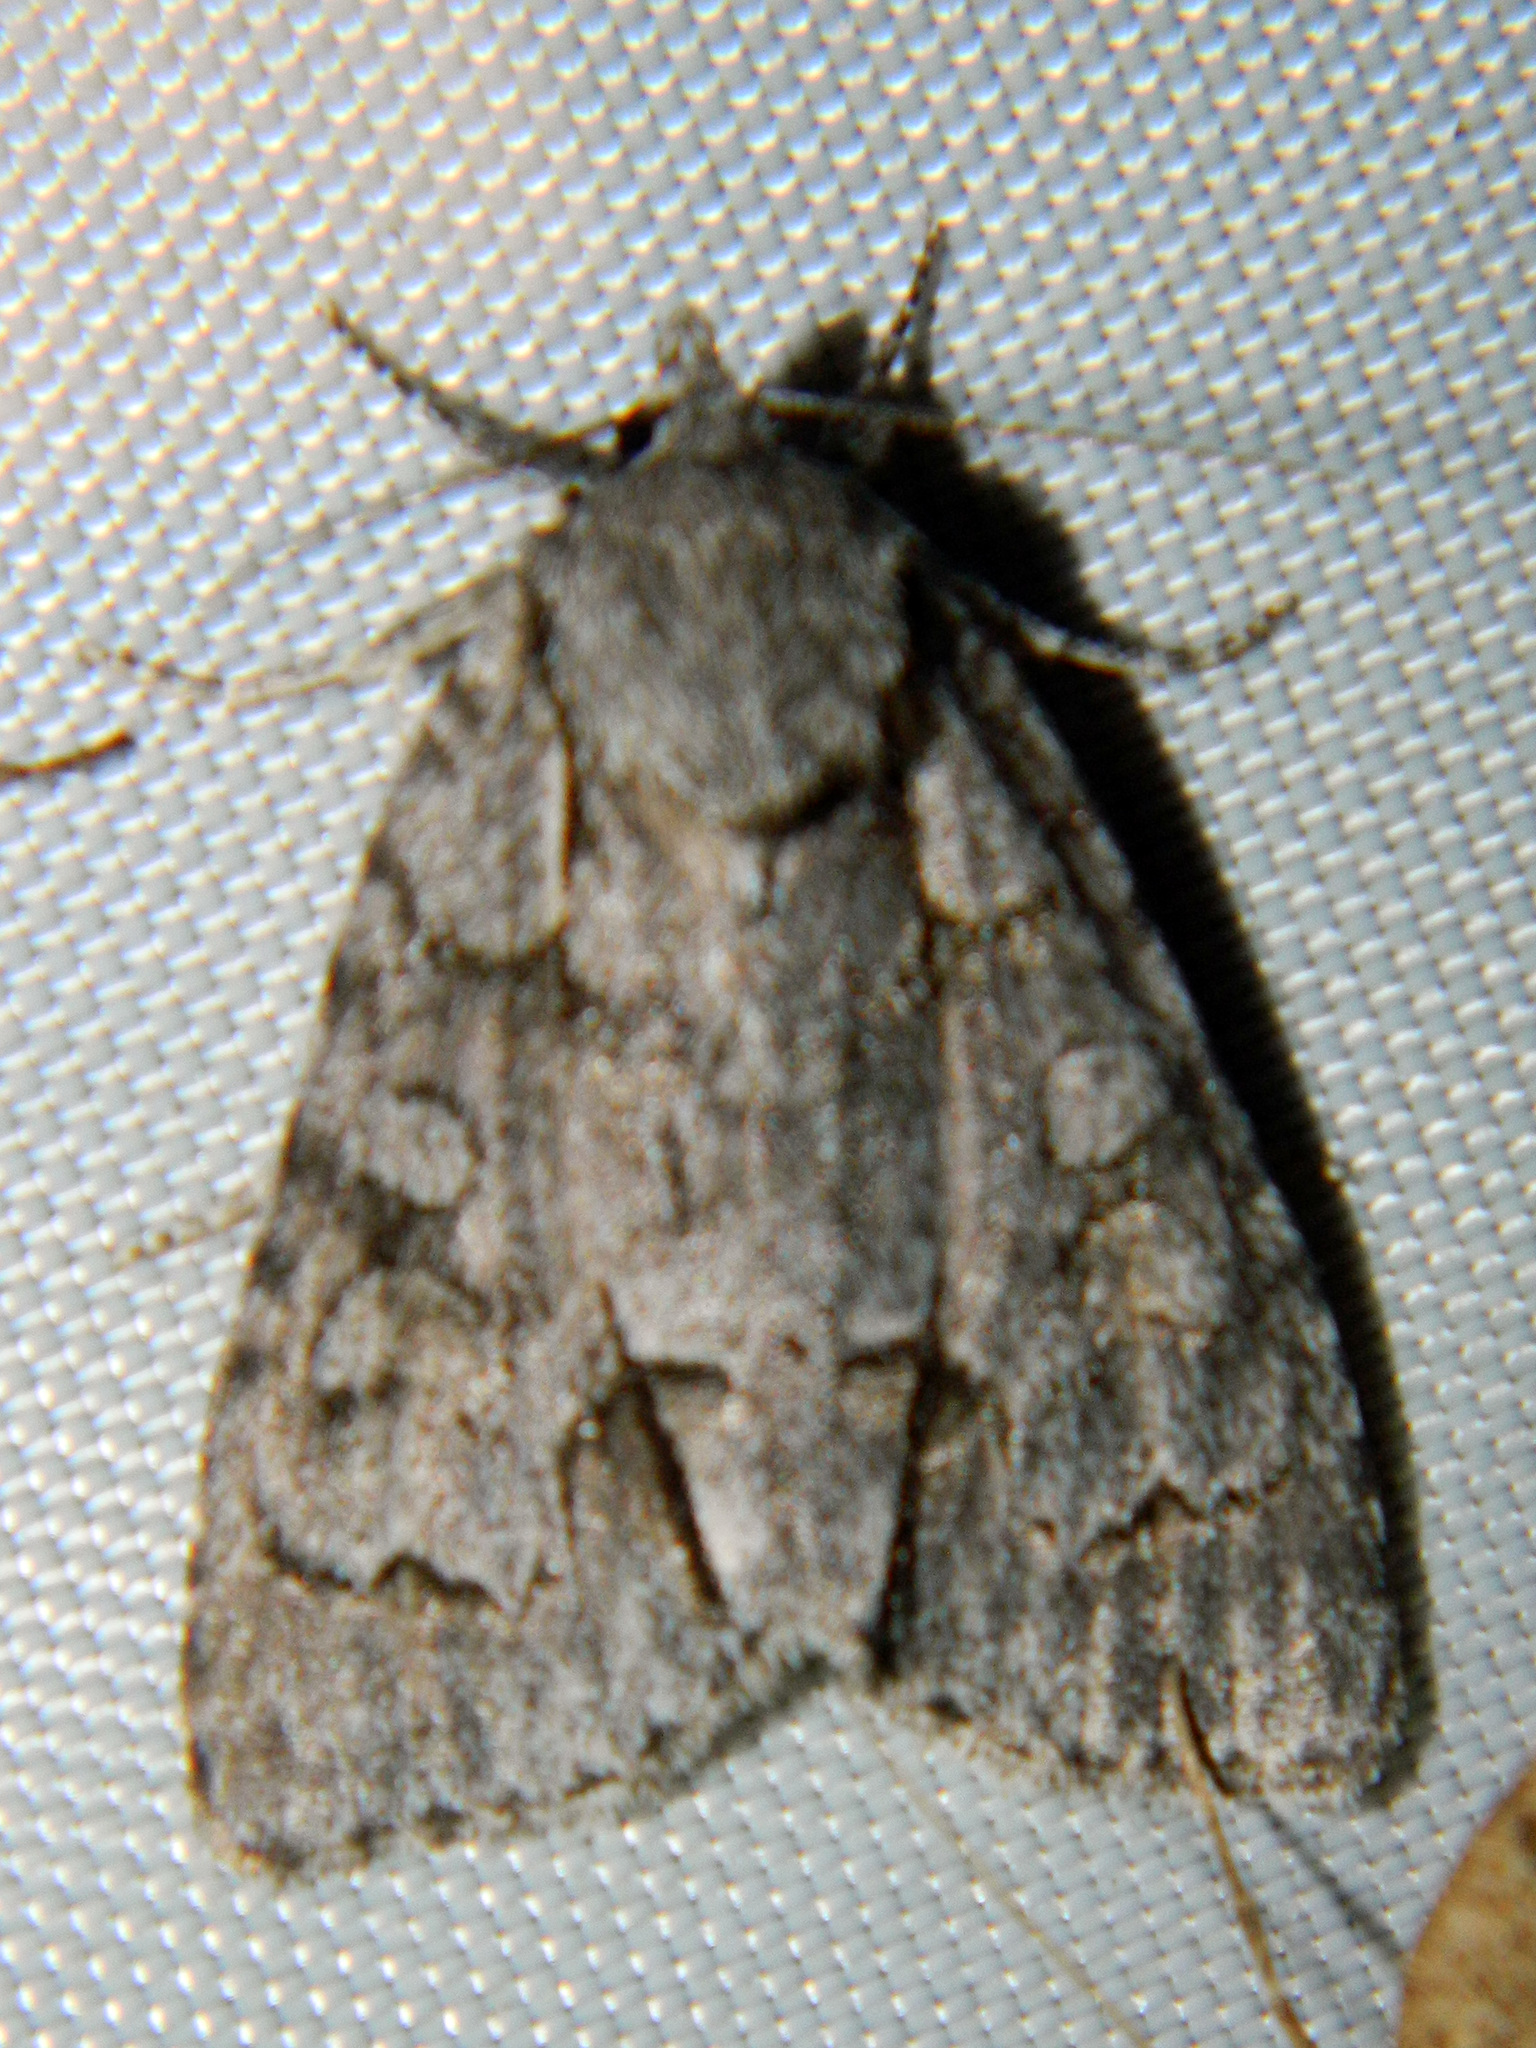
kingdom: Animalia
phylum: Arthropoda
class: Insecta
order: Lepidoptera
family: Noctuidae
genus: Acronicta
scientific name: Acronicta grisea
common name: Gray dagger
